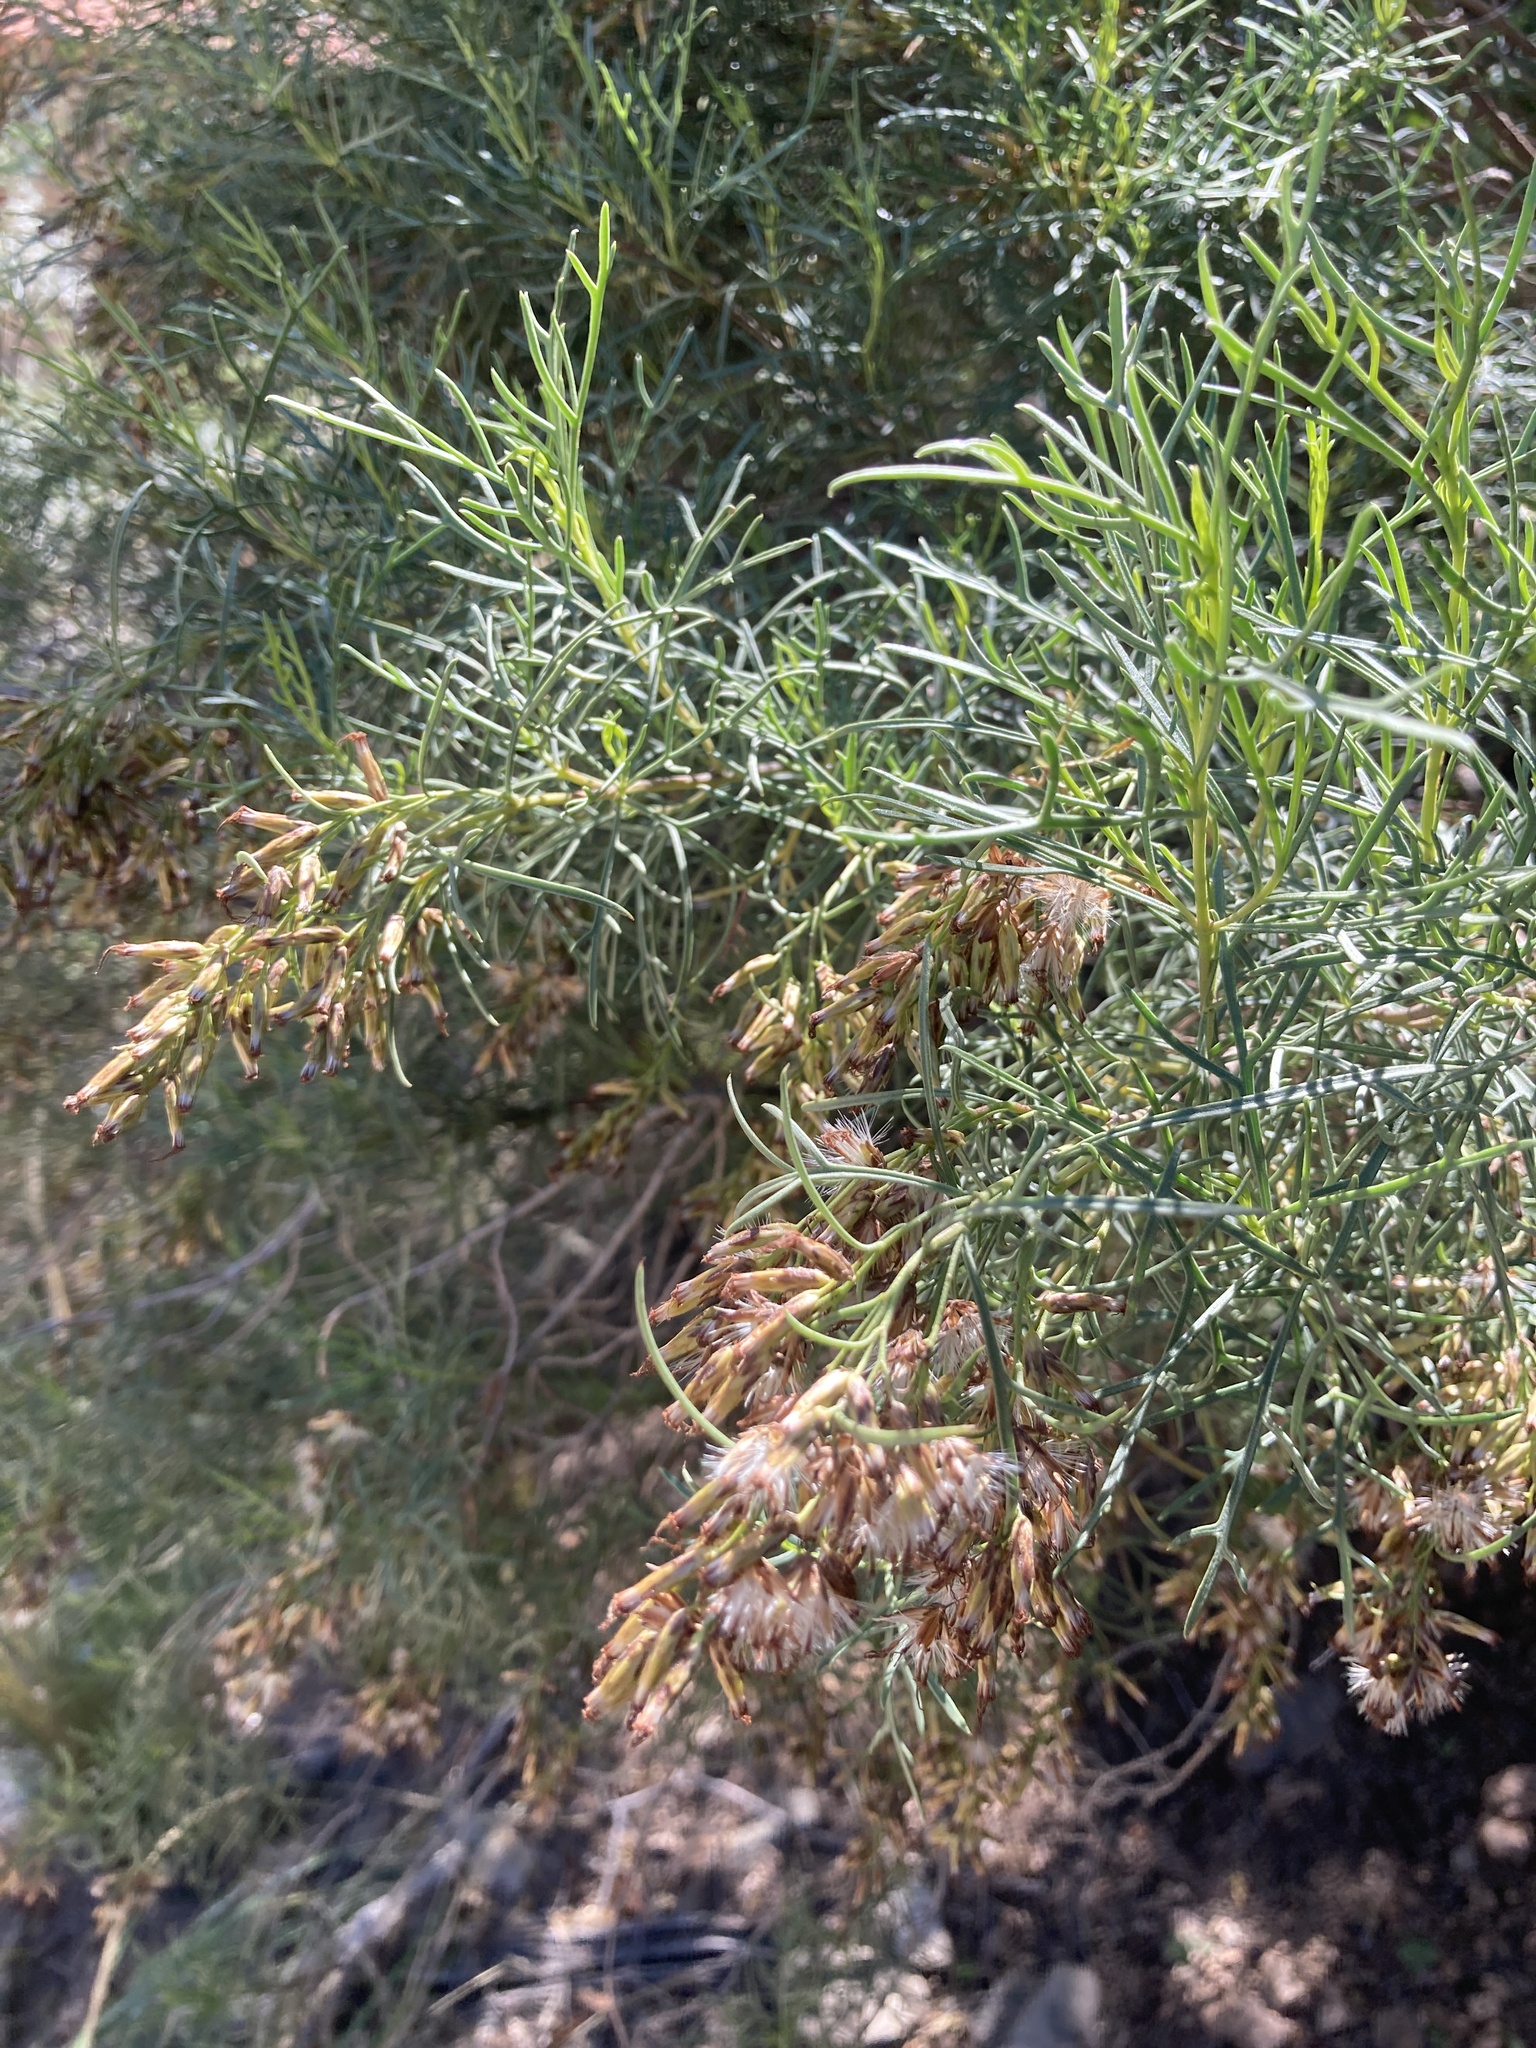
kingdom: Plantae
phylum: Tracheophyta
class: Magnoliopsida
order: Asterales
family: Asteraceae
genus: Acanthostyles
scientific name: Acanthostyles buniifolius
